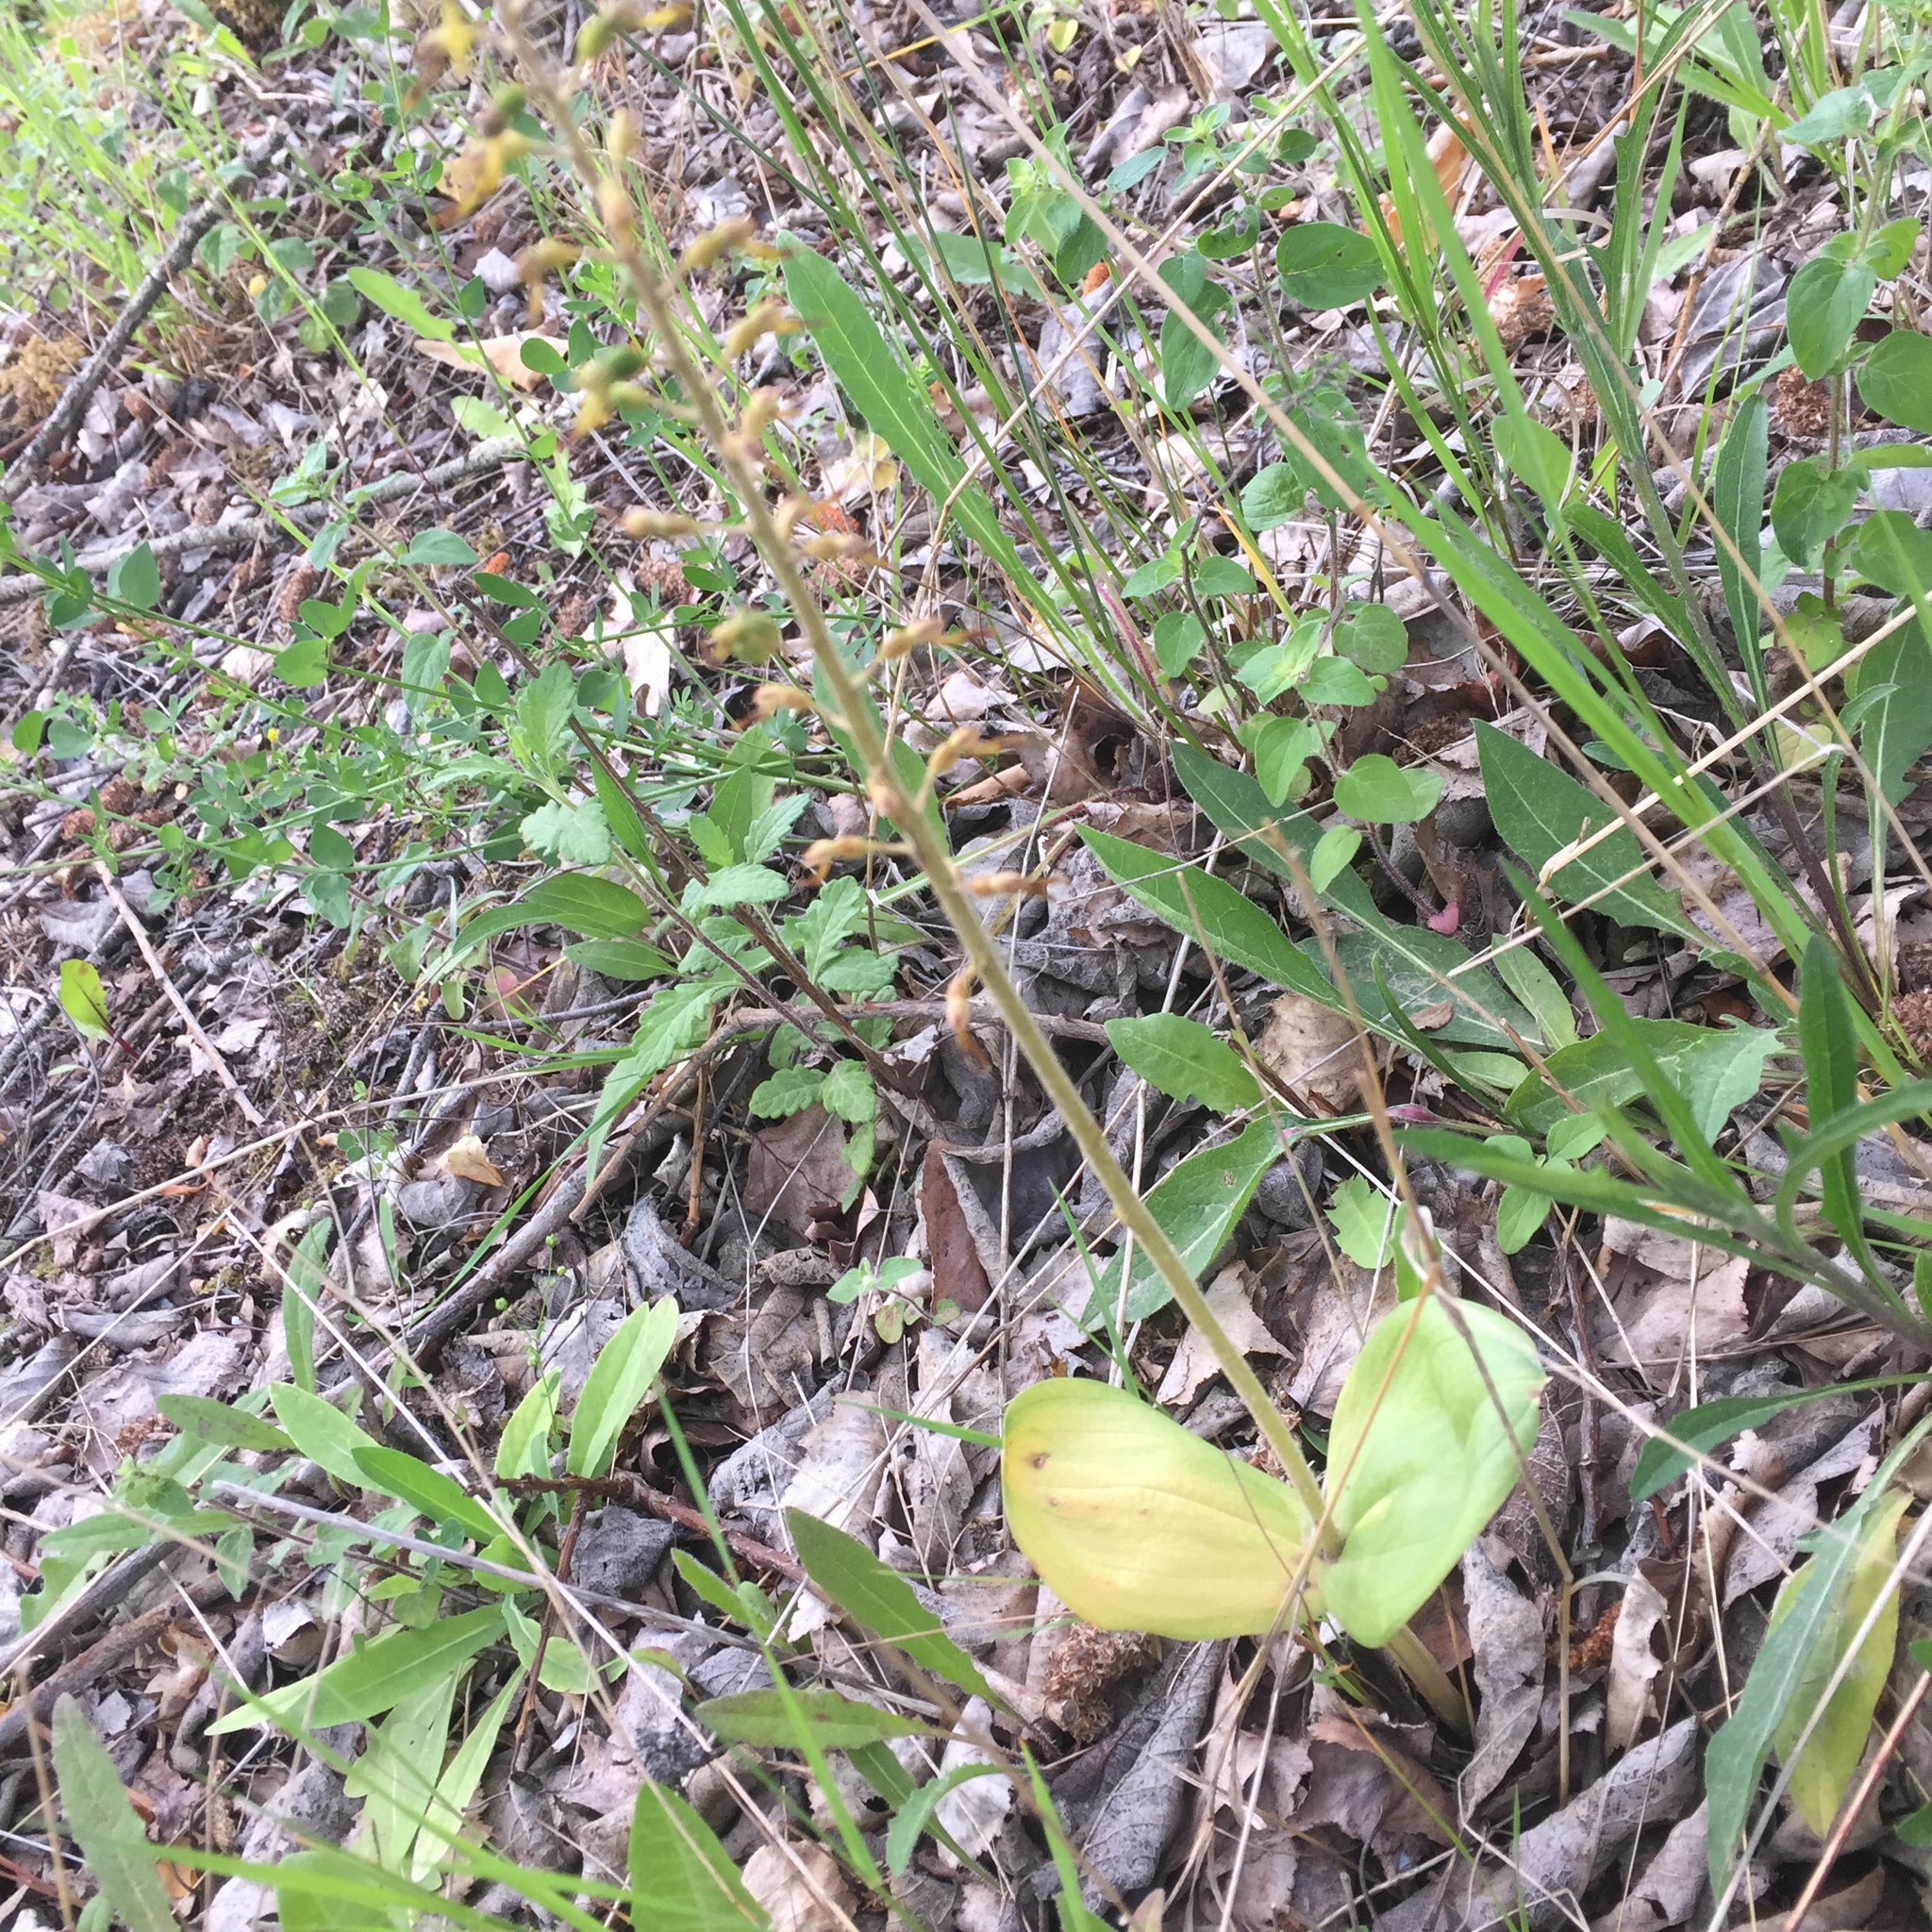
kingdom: Plantae
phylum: Tracheophyta
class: Liliopsida
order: Asparagales
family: Orchidaceae
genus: Neottia
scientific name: Neottia ovata
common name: Common twayblade
